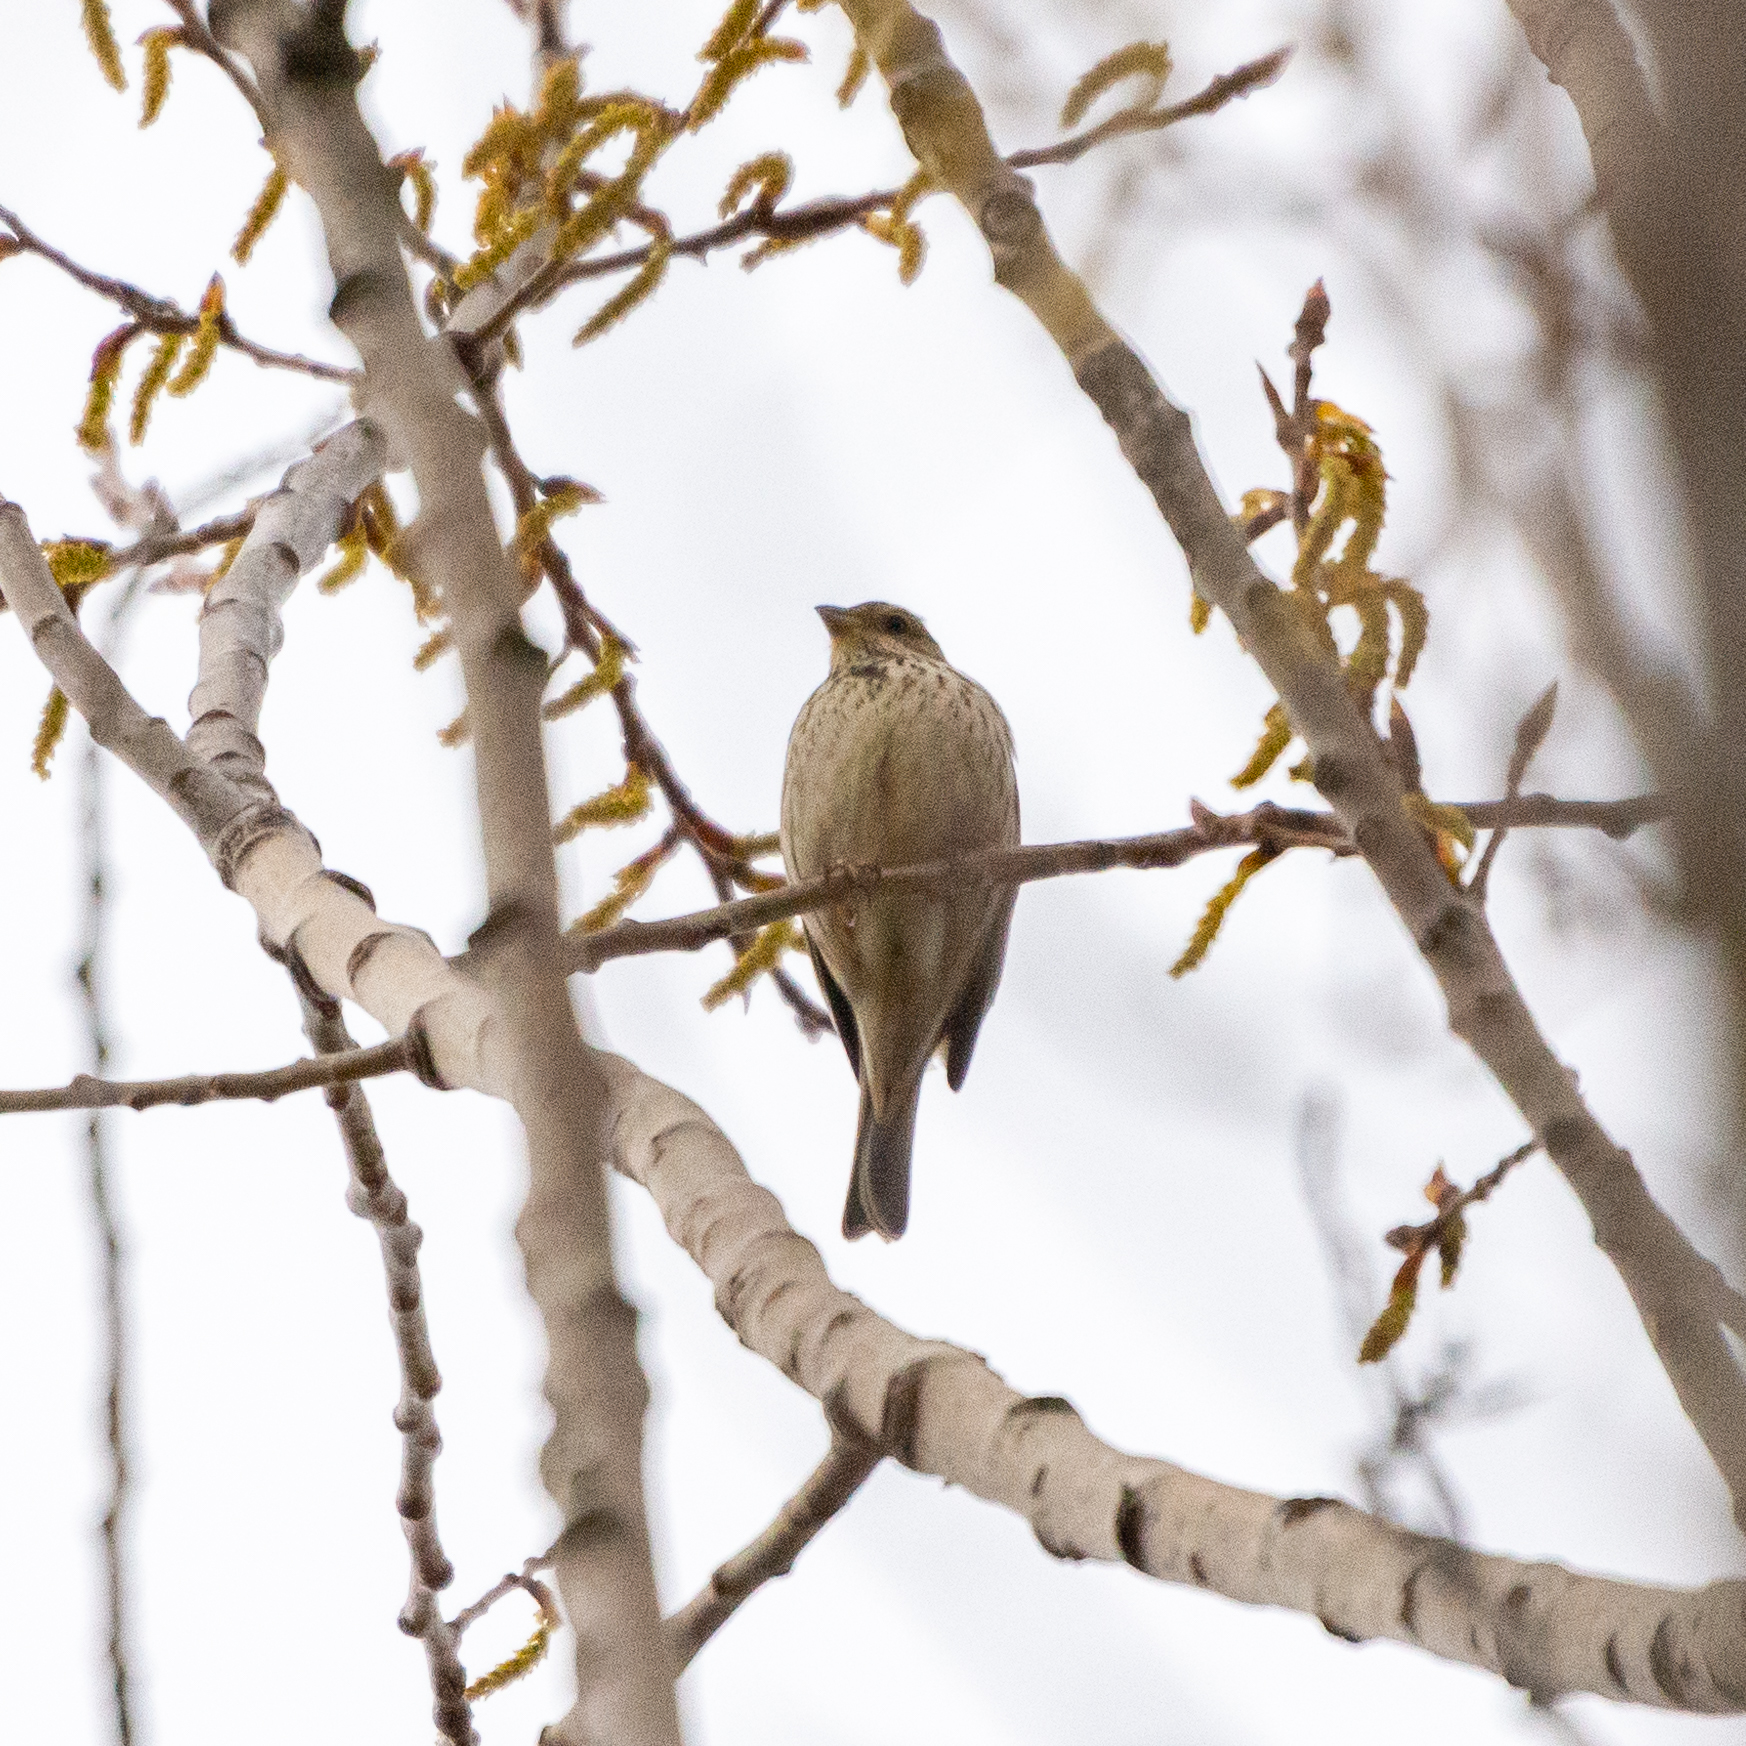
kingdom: Animalia
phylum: Chordata
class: Aves
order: Passeriformes
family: Emberizidae
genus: Emberiza
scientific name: Emberiza calandra
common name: Corn bunting
